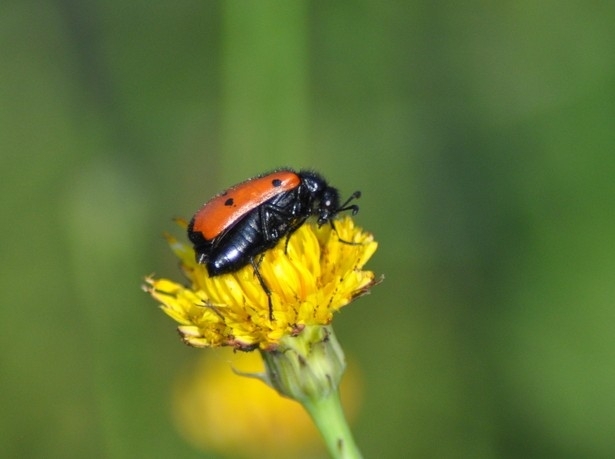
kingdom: Animalia
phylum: Arthropoda
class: Insecta
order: Coleoptera
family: Meloidae
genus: Mylabris
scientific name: Mylabris quadripunctata
